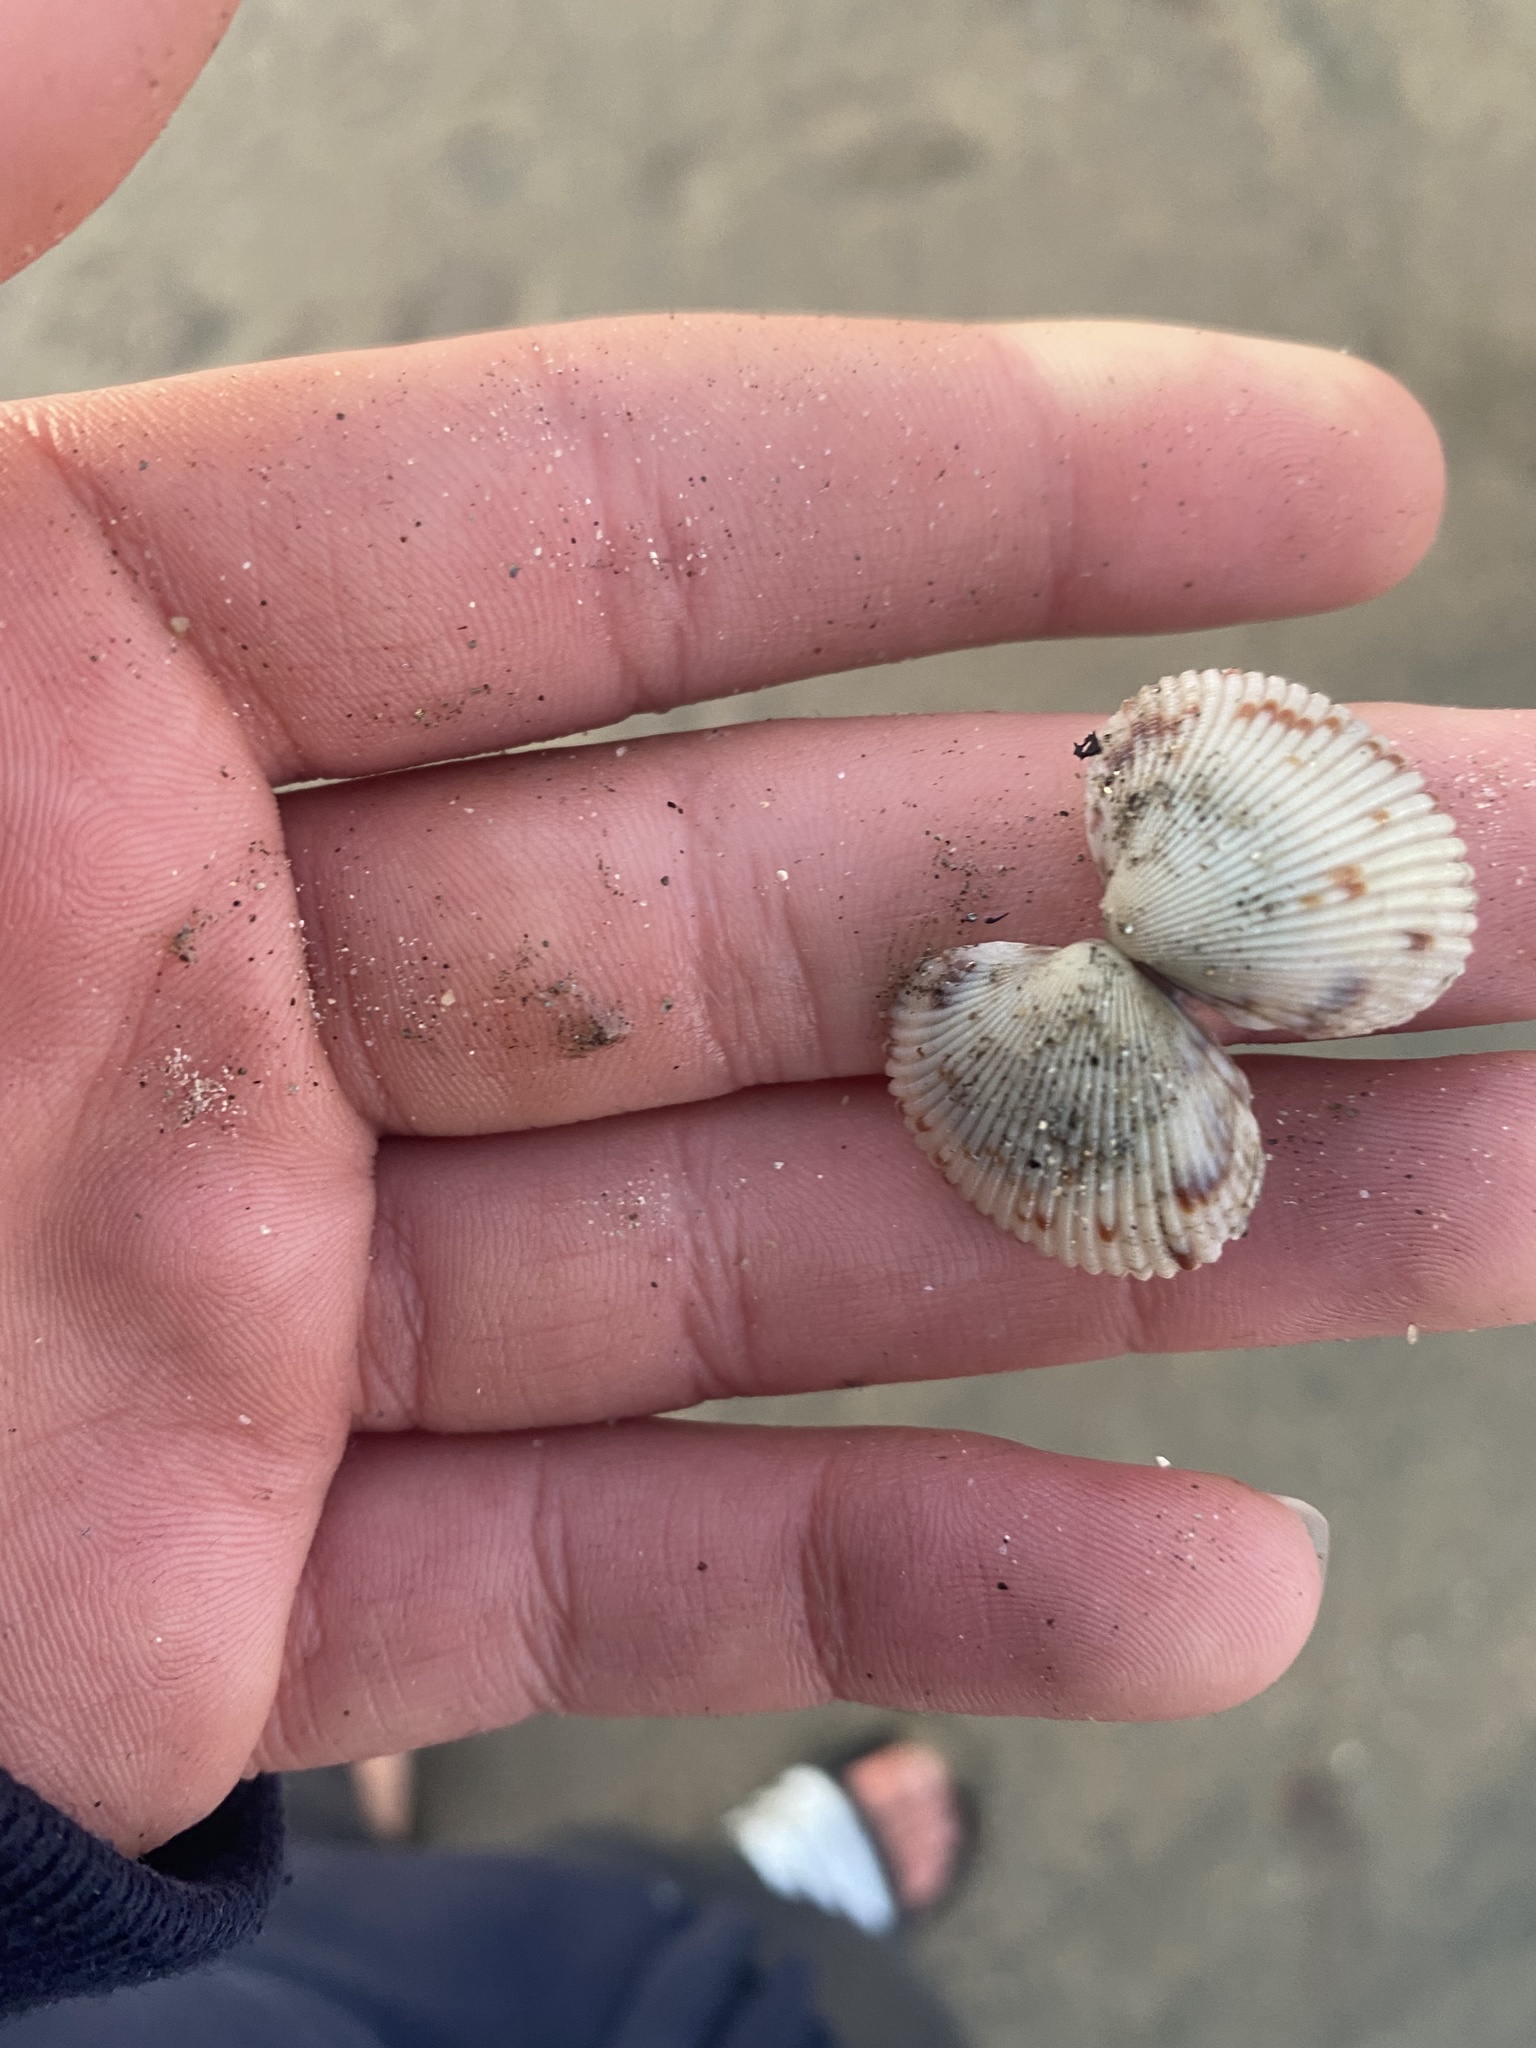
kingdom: Animalia
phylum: Mollusca
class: Bivalvia
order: Cardiida
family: Cardiidae
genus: Clinocardium
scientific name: Clinocardium nuttallii
